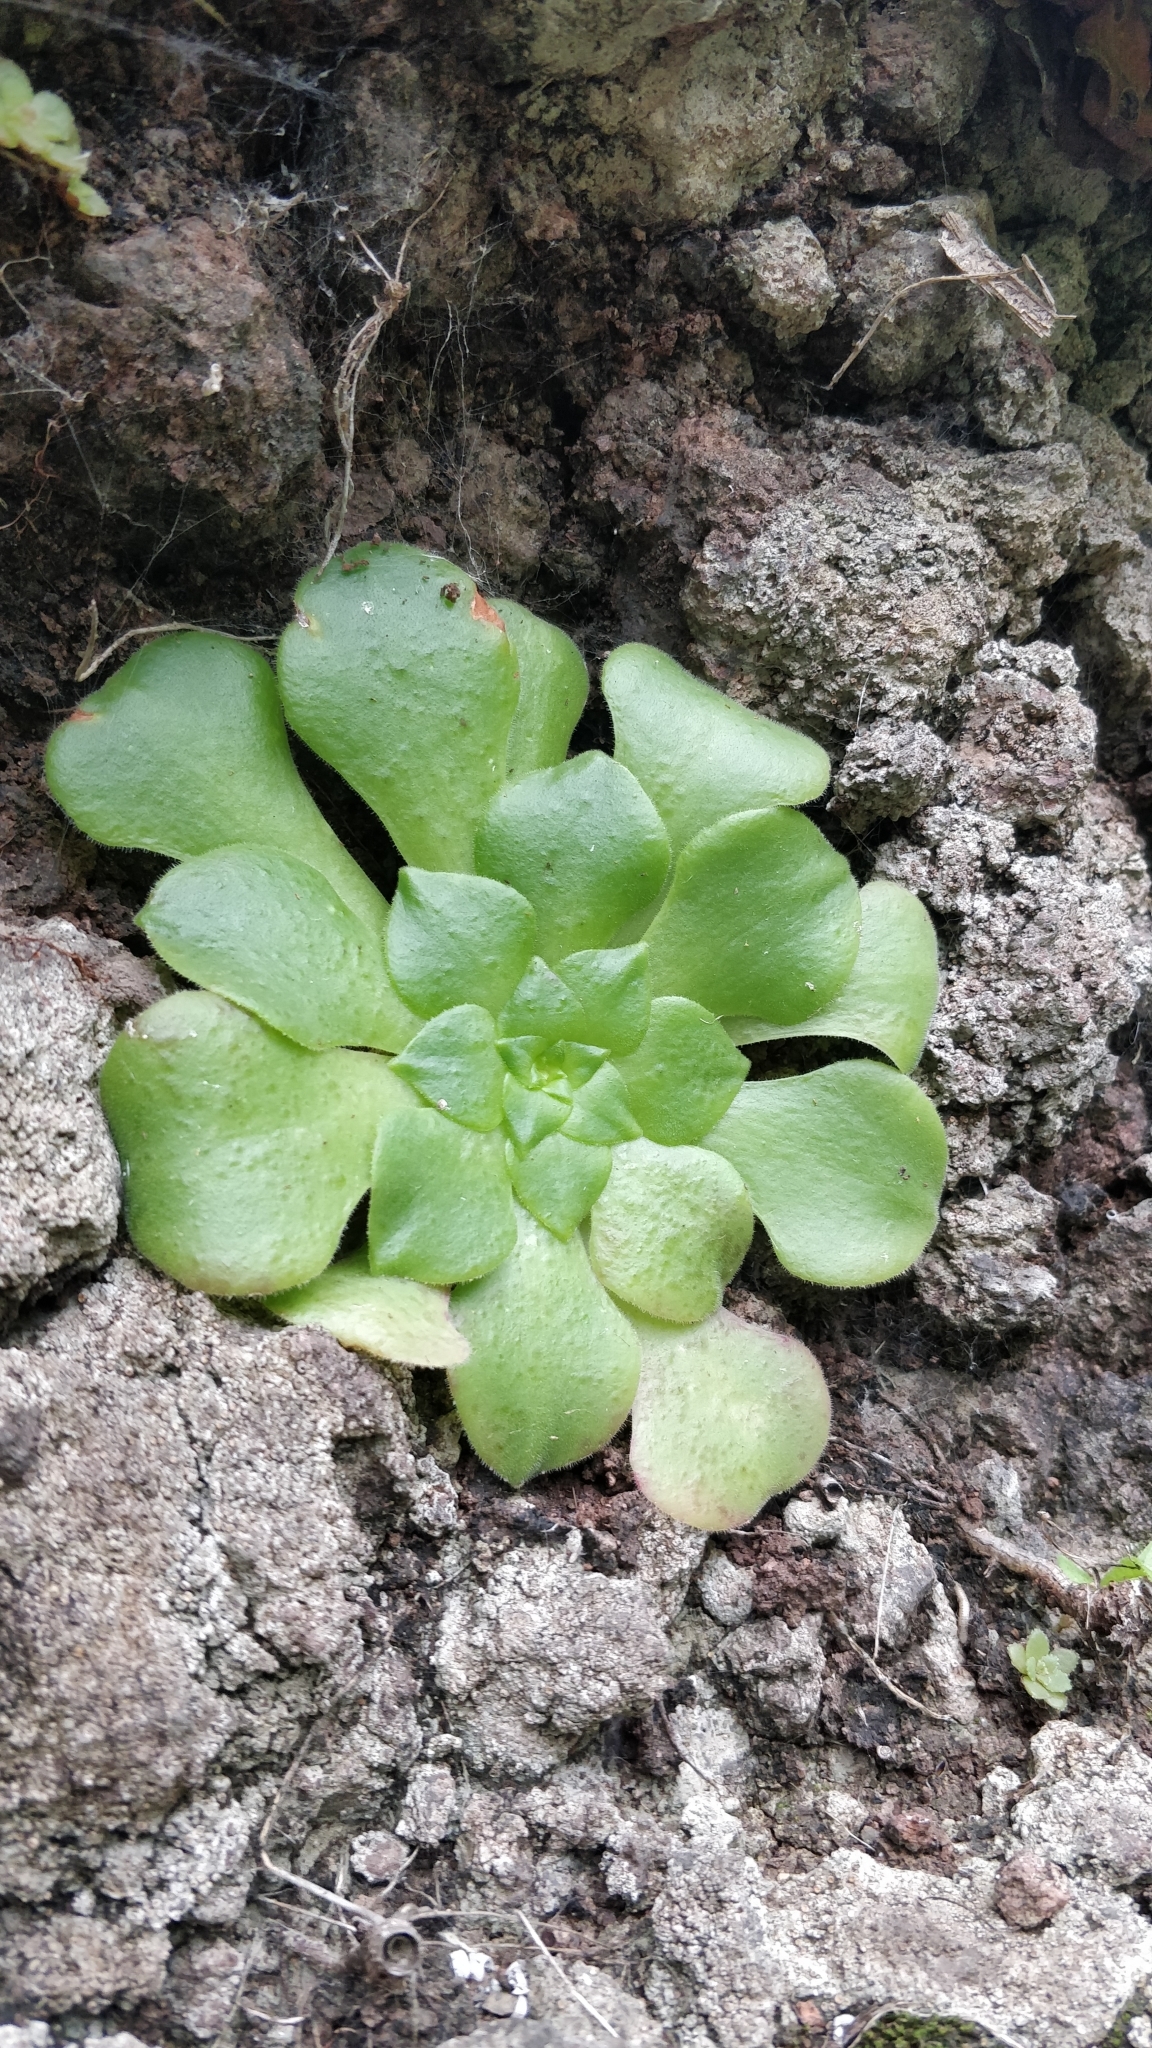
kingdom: Plantae
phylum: Tracheophyta
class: Magnoliopsida
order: Saxifragales
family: Crassulaceae
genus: Aeonium
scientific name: Aeonium glandulosum
